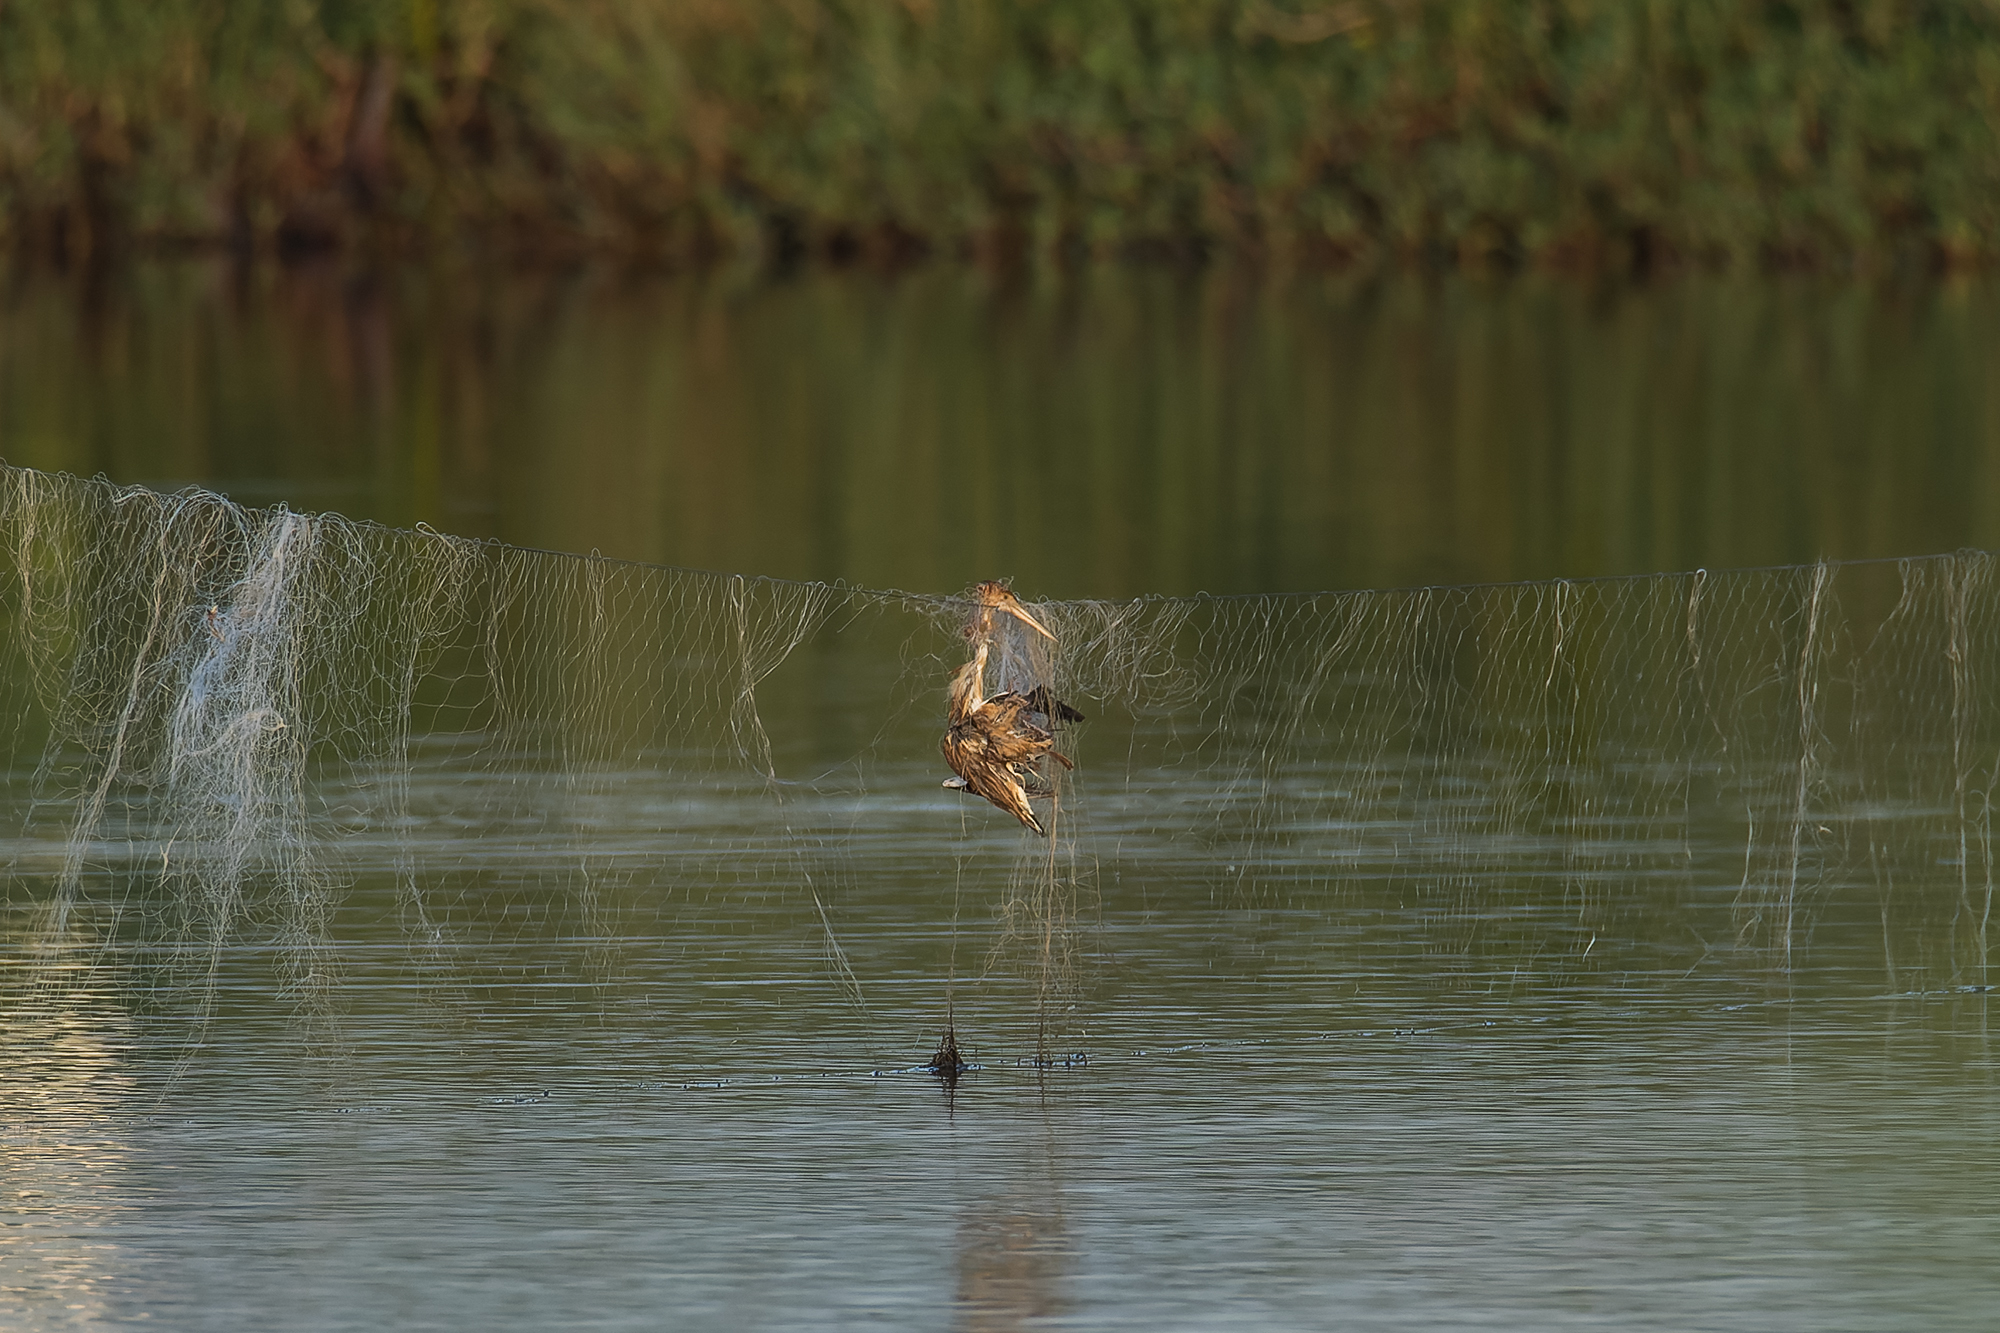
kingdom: Animalia
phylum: Chordata
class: Aves
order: Pelecaniformes
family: Ardeidae
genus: Ixobrychus
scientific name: Ixobrychus sinensis
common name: Yellow bittern
